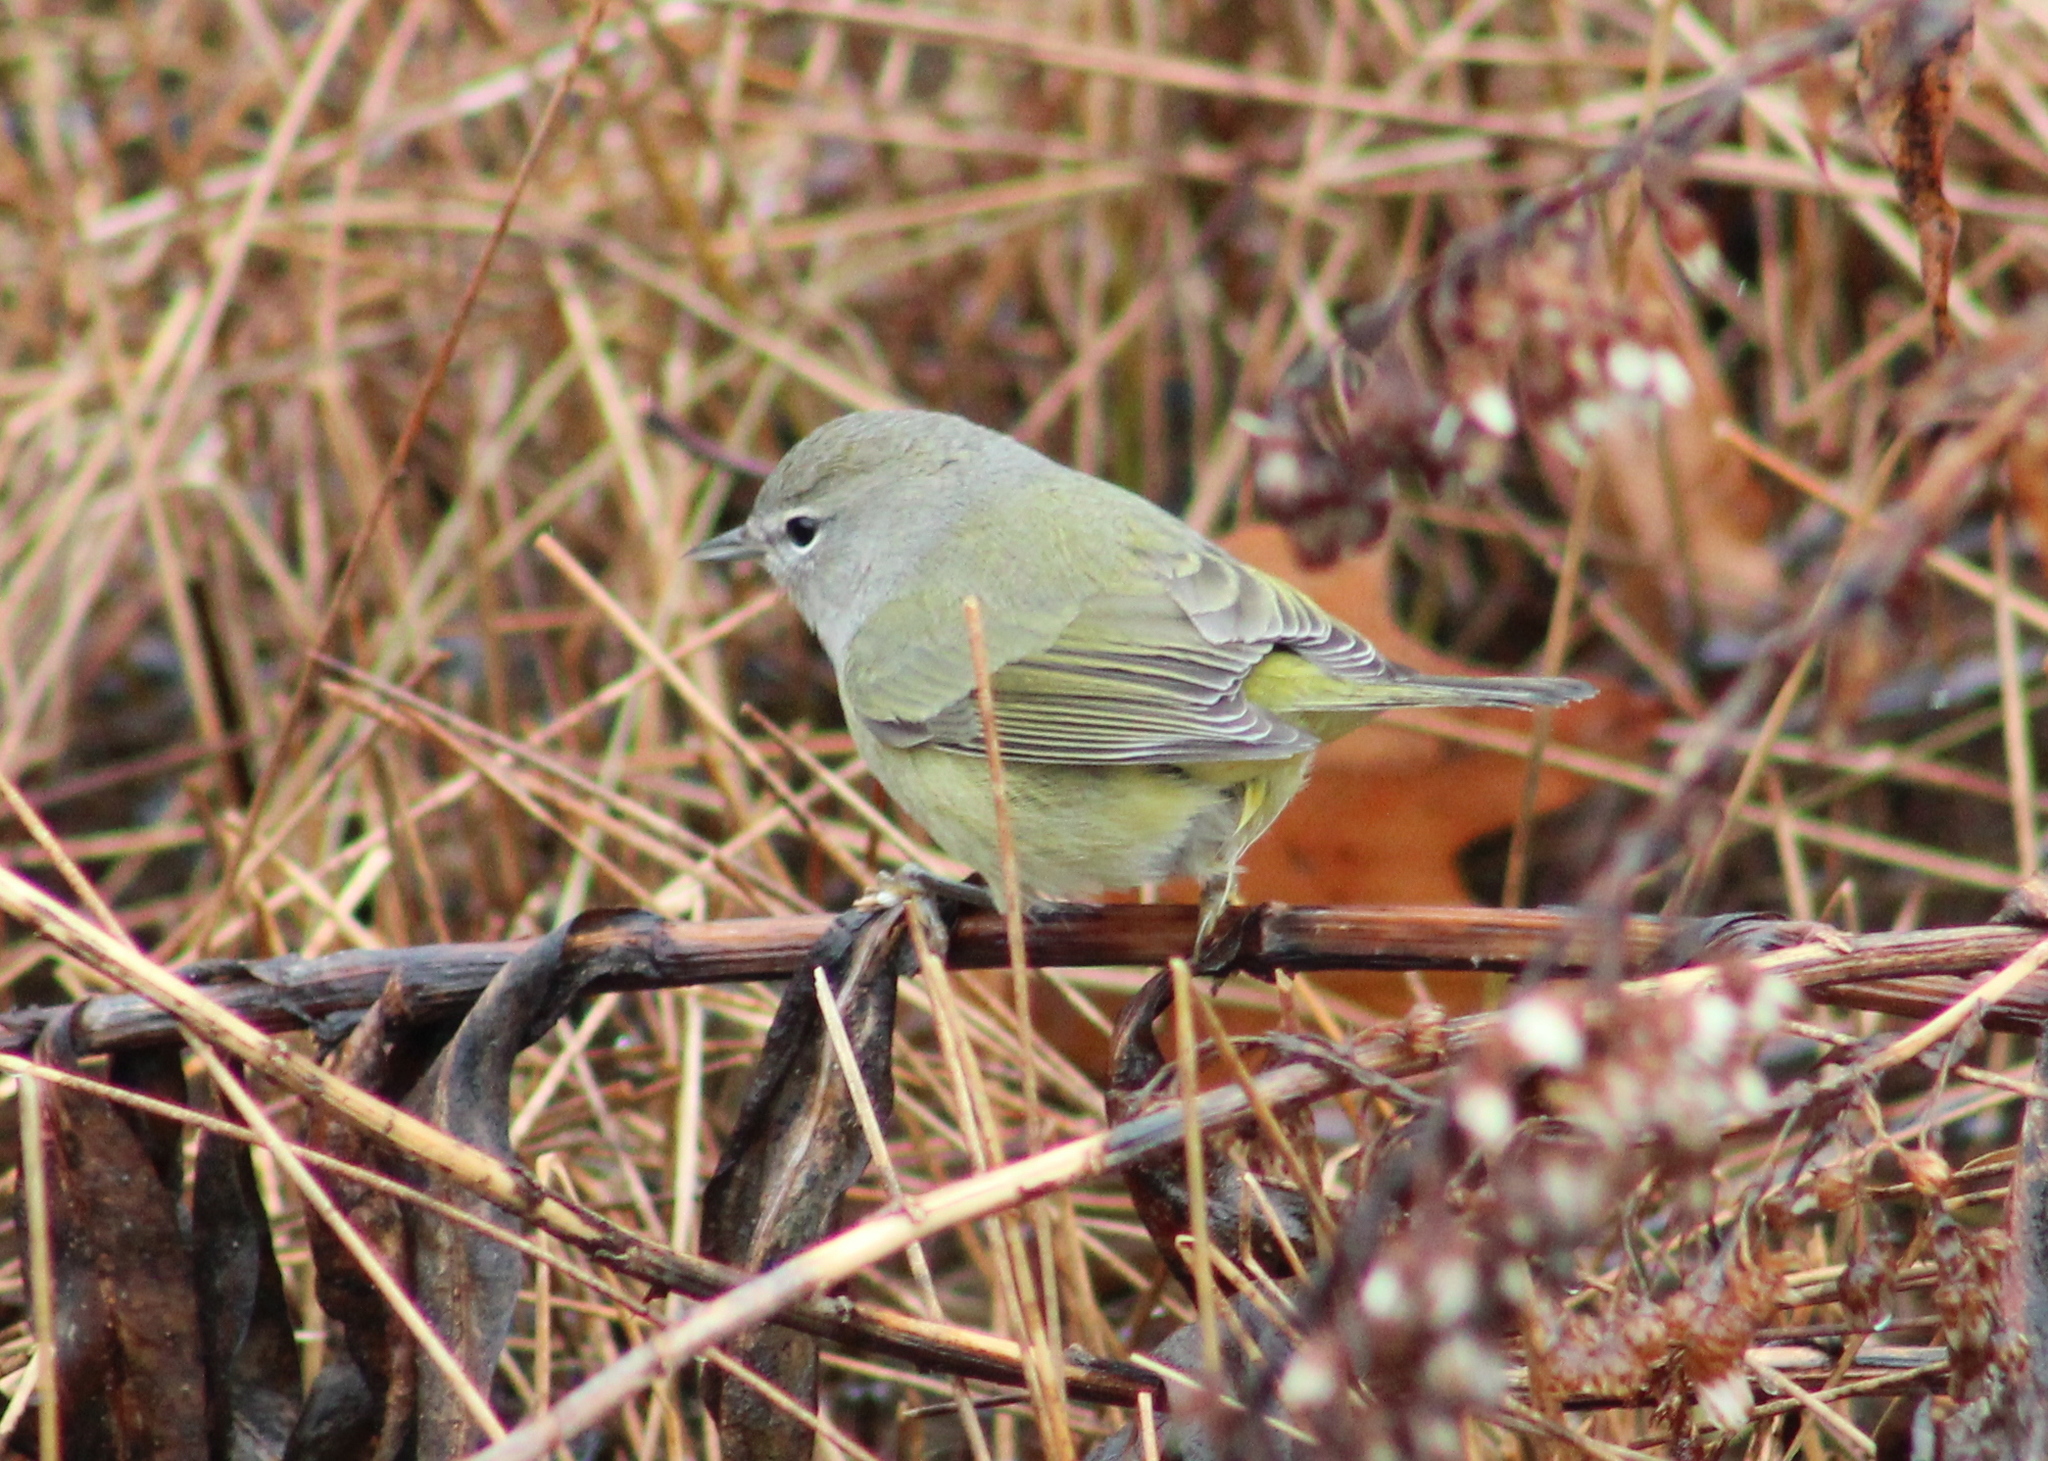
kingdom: Animalia
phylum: Chordata
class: Aves
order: Passeriformes
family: Parulidae
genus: Leiothlypis
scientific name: Leiothlypis celata
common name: Orange-crowned warbler
